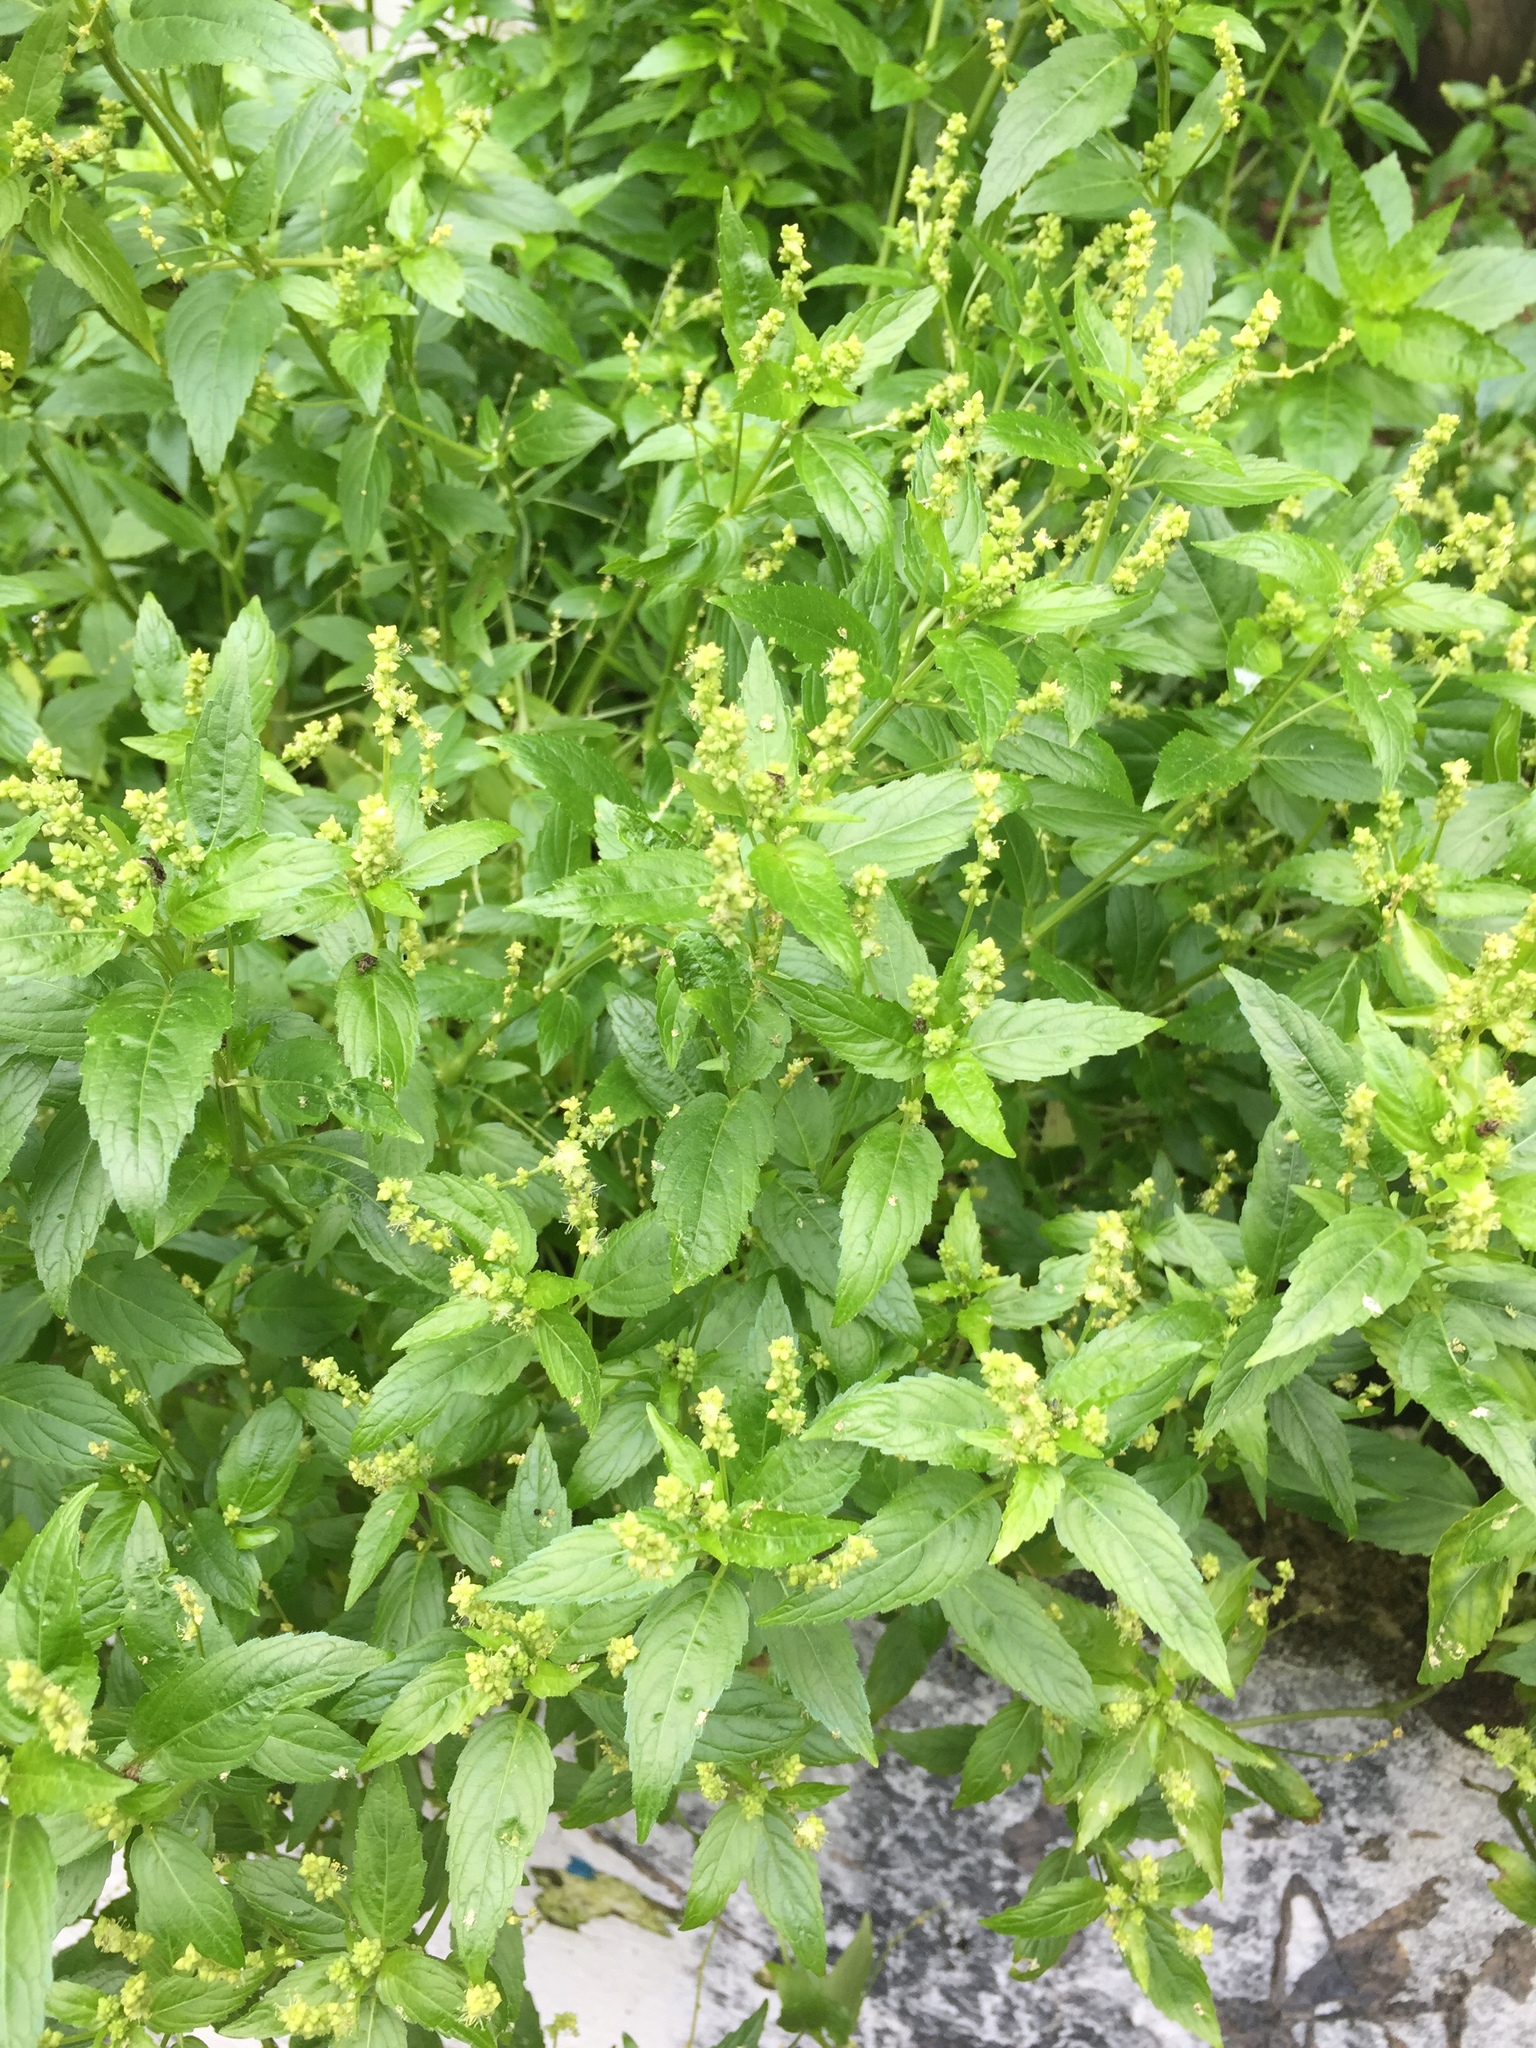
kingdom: Plantae
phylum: Tracheophyta
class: Magnoliopsida
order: Malpighiales
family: Euphorbiaceae
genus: Mercurialis
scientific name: Mercurialis annua
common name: Annual mercury
